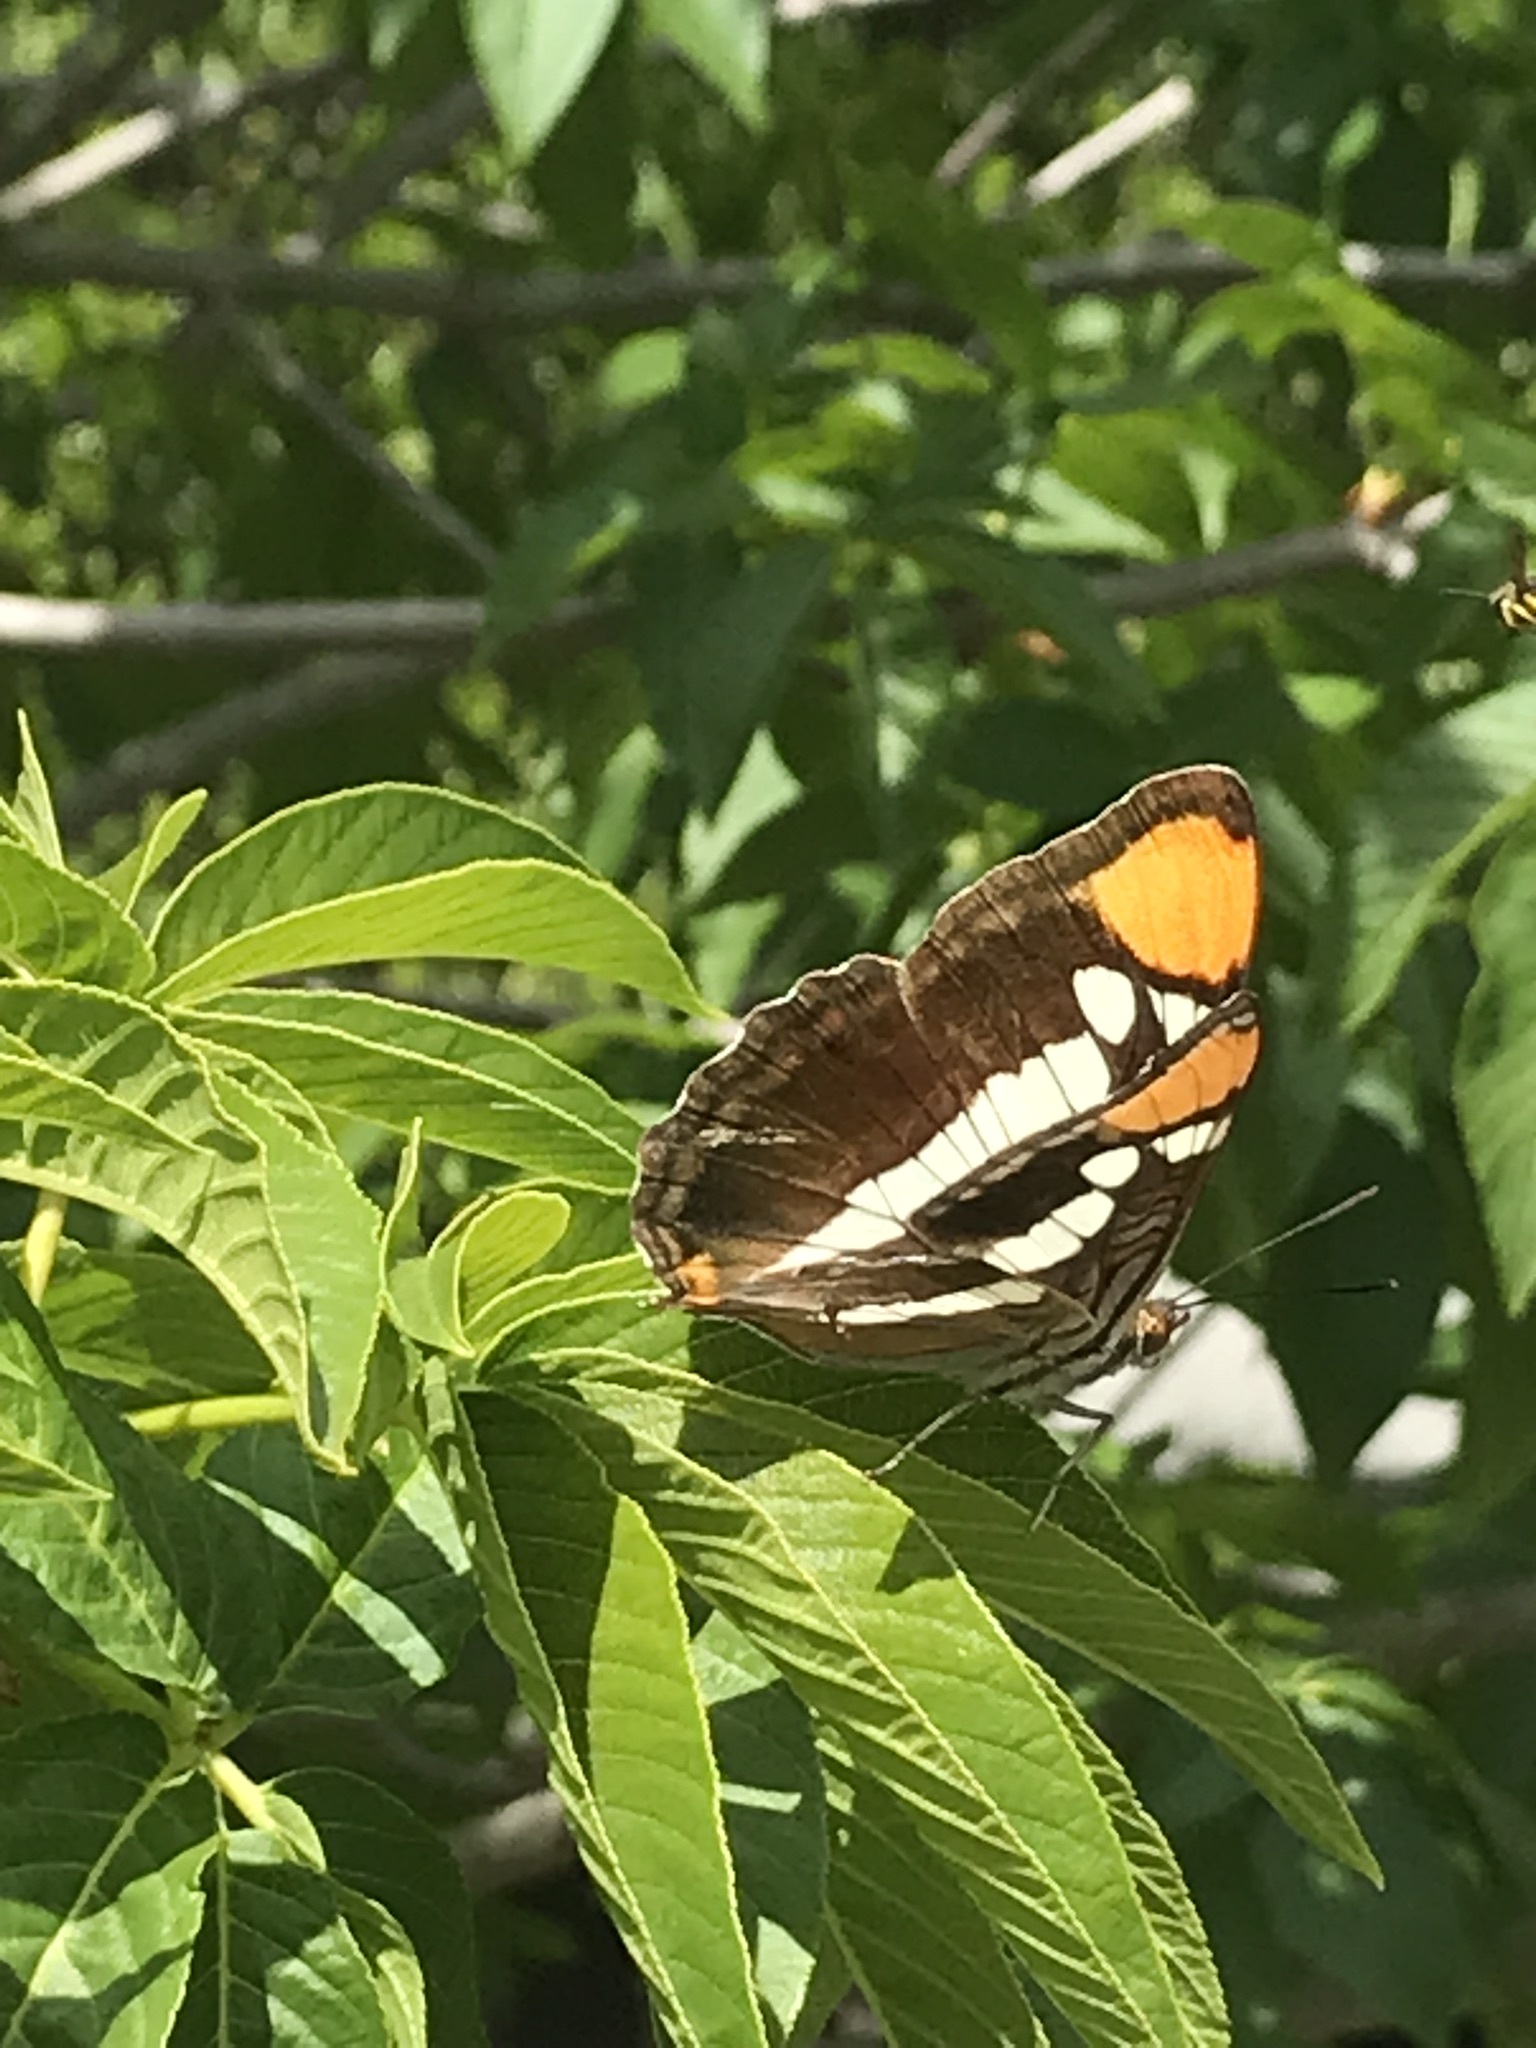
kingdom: Animalia
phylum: Arthropoda
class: Insecta
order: Lepidoptera
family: Nymphalidae
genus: Limenitis
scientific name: Limenitis bredowii
